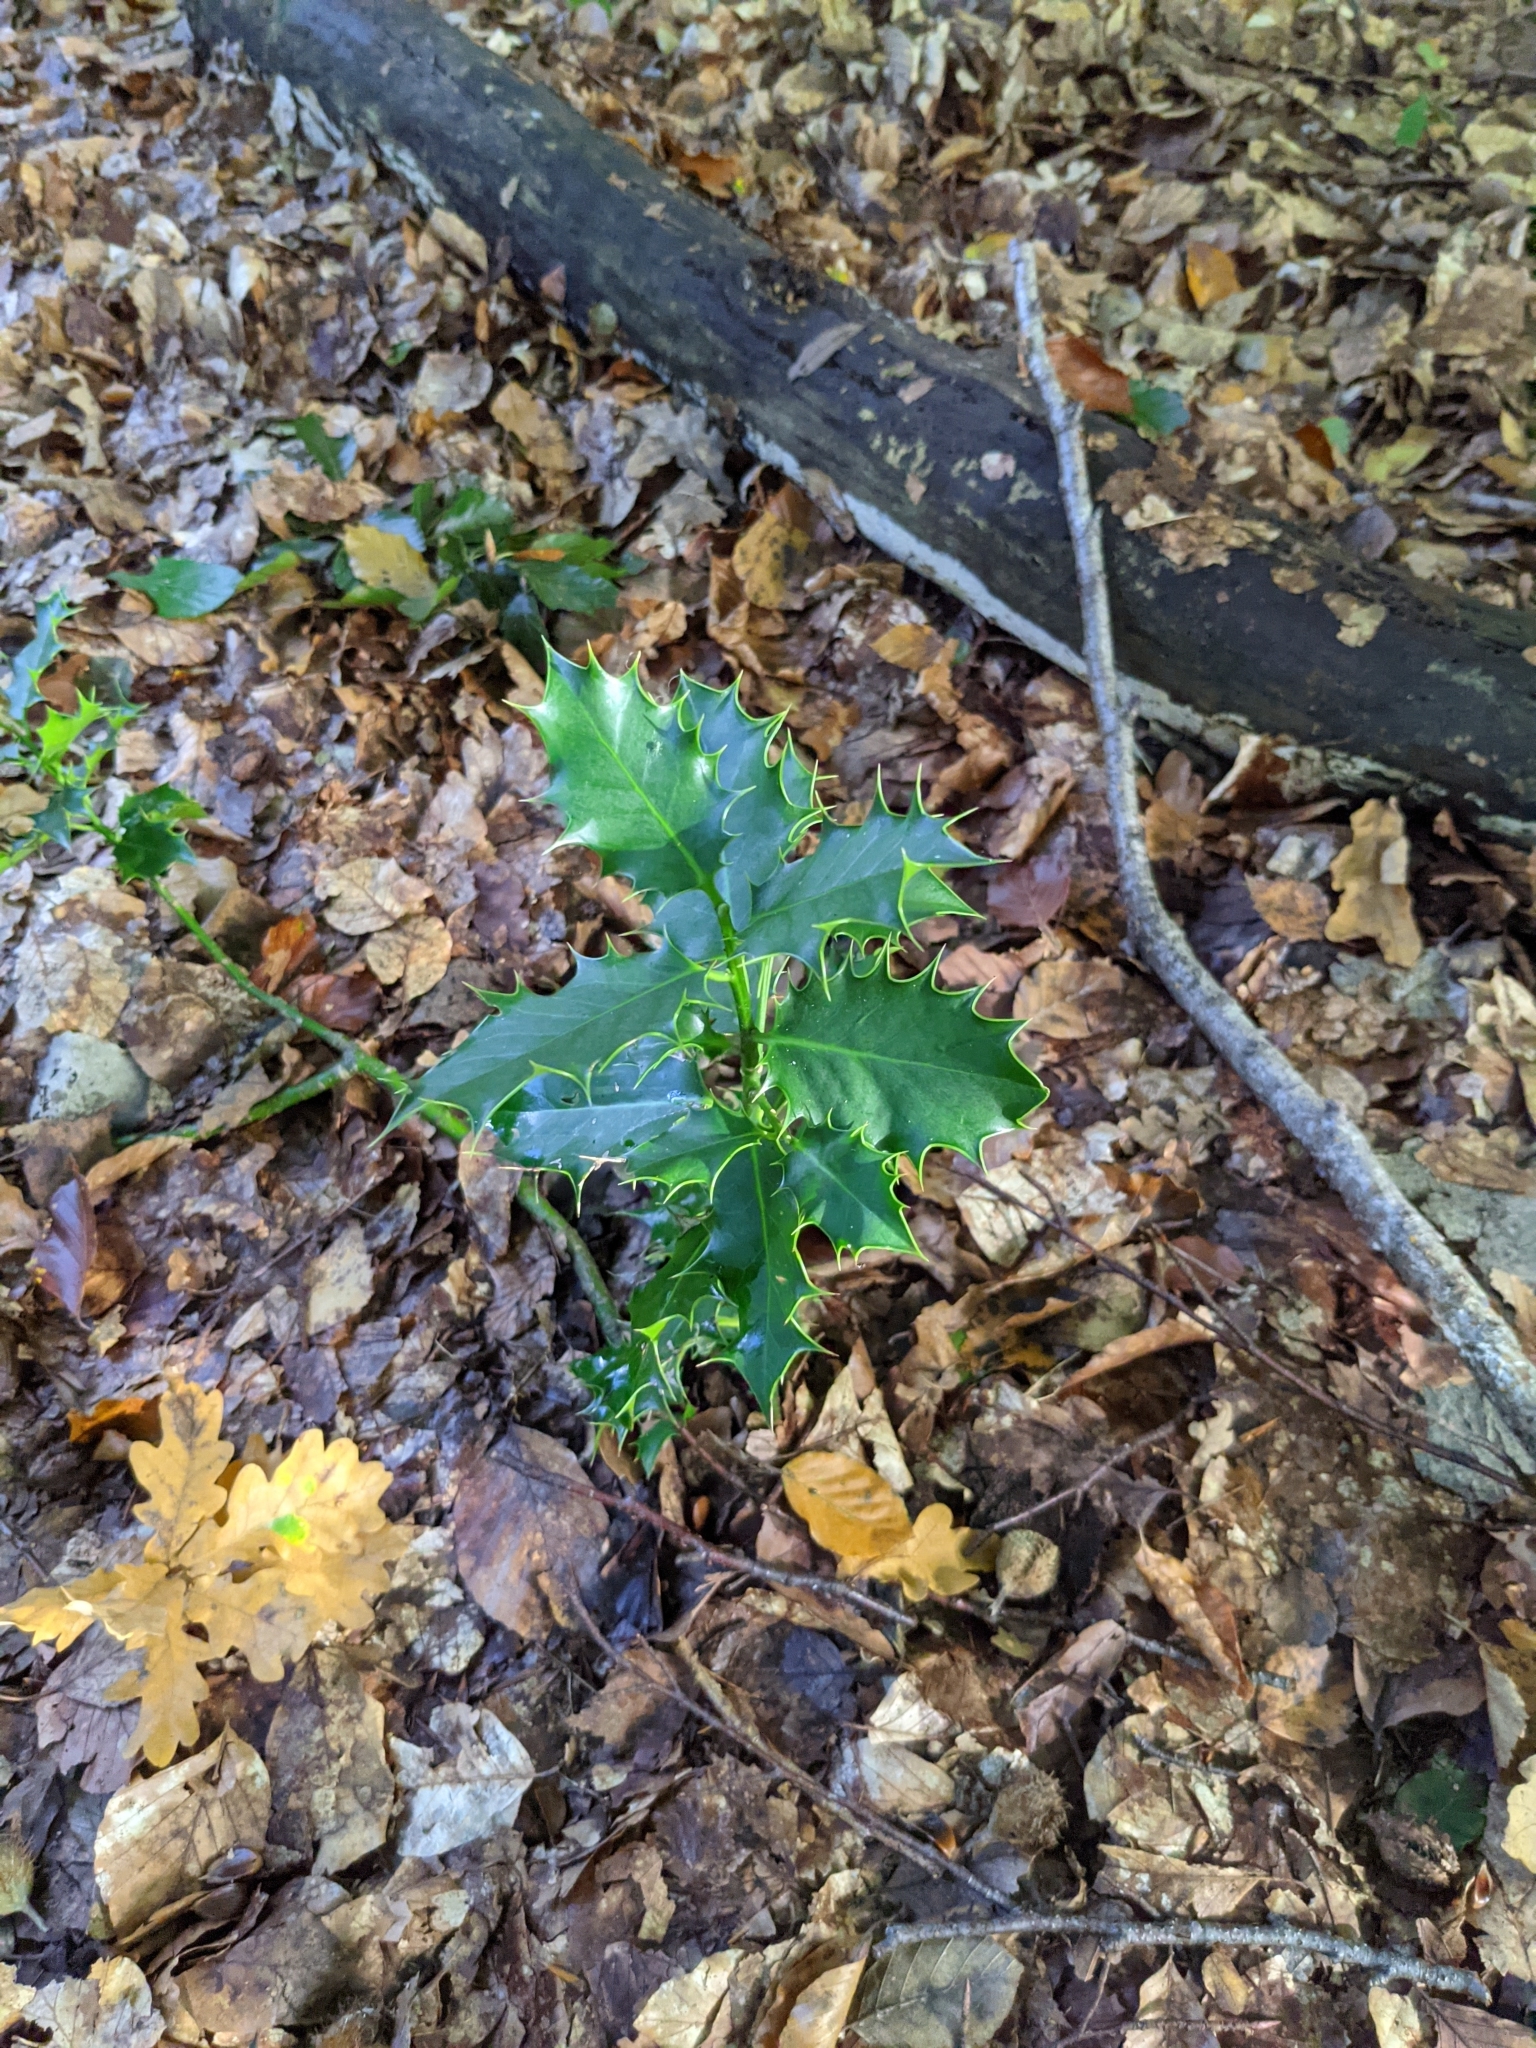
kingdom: Plantae
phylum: Tracheophyta
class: Magnoliopsida
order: Aquifoliales
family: Aquifoliaceae
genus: Ilex
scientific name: Ilex aquifolium
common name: English holly
